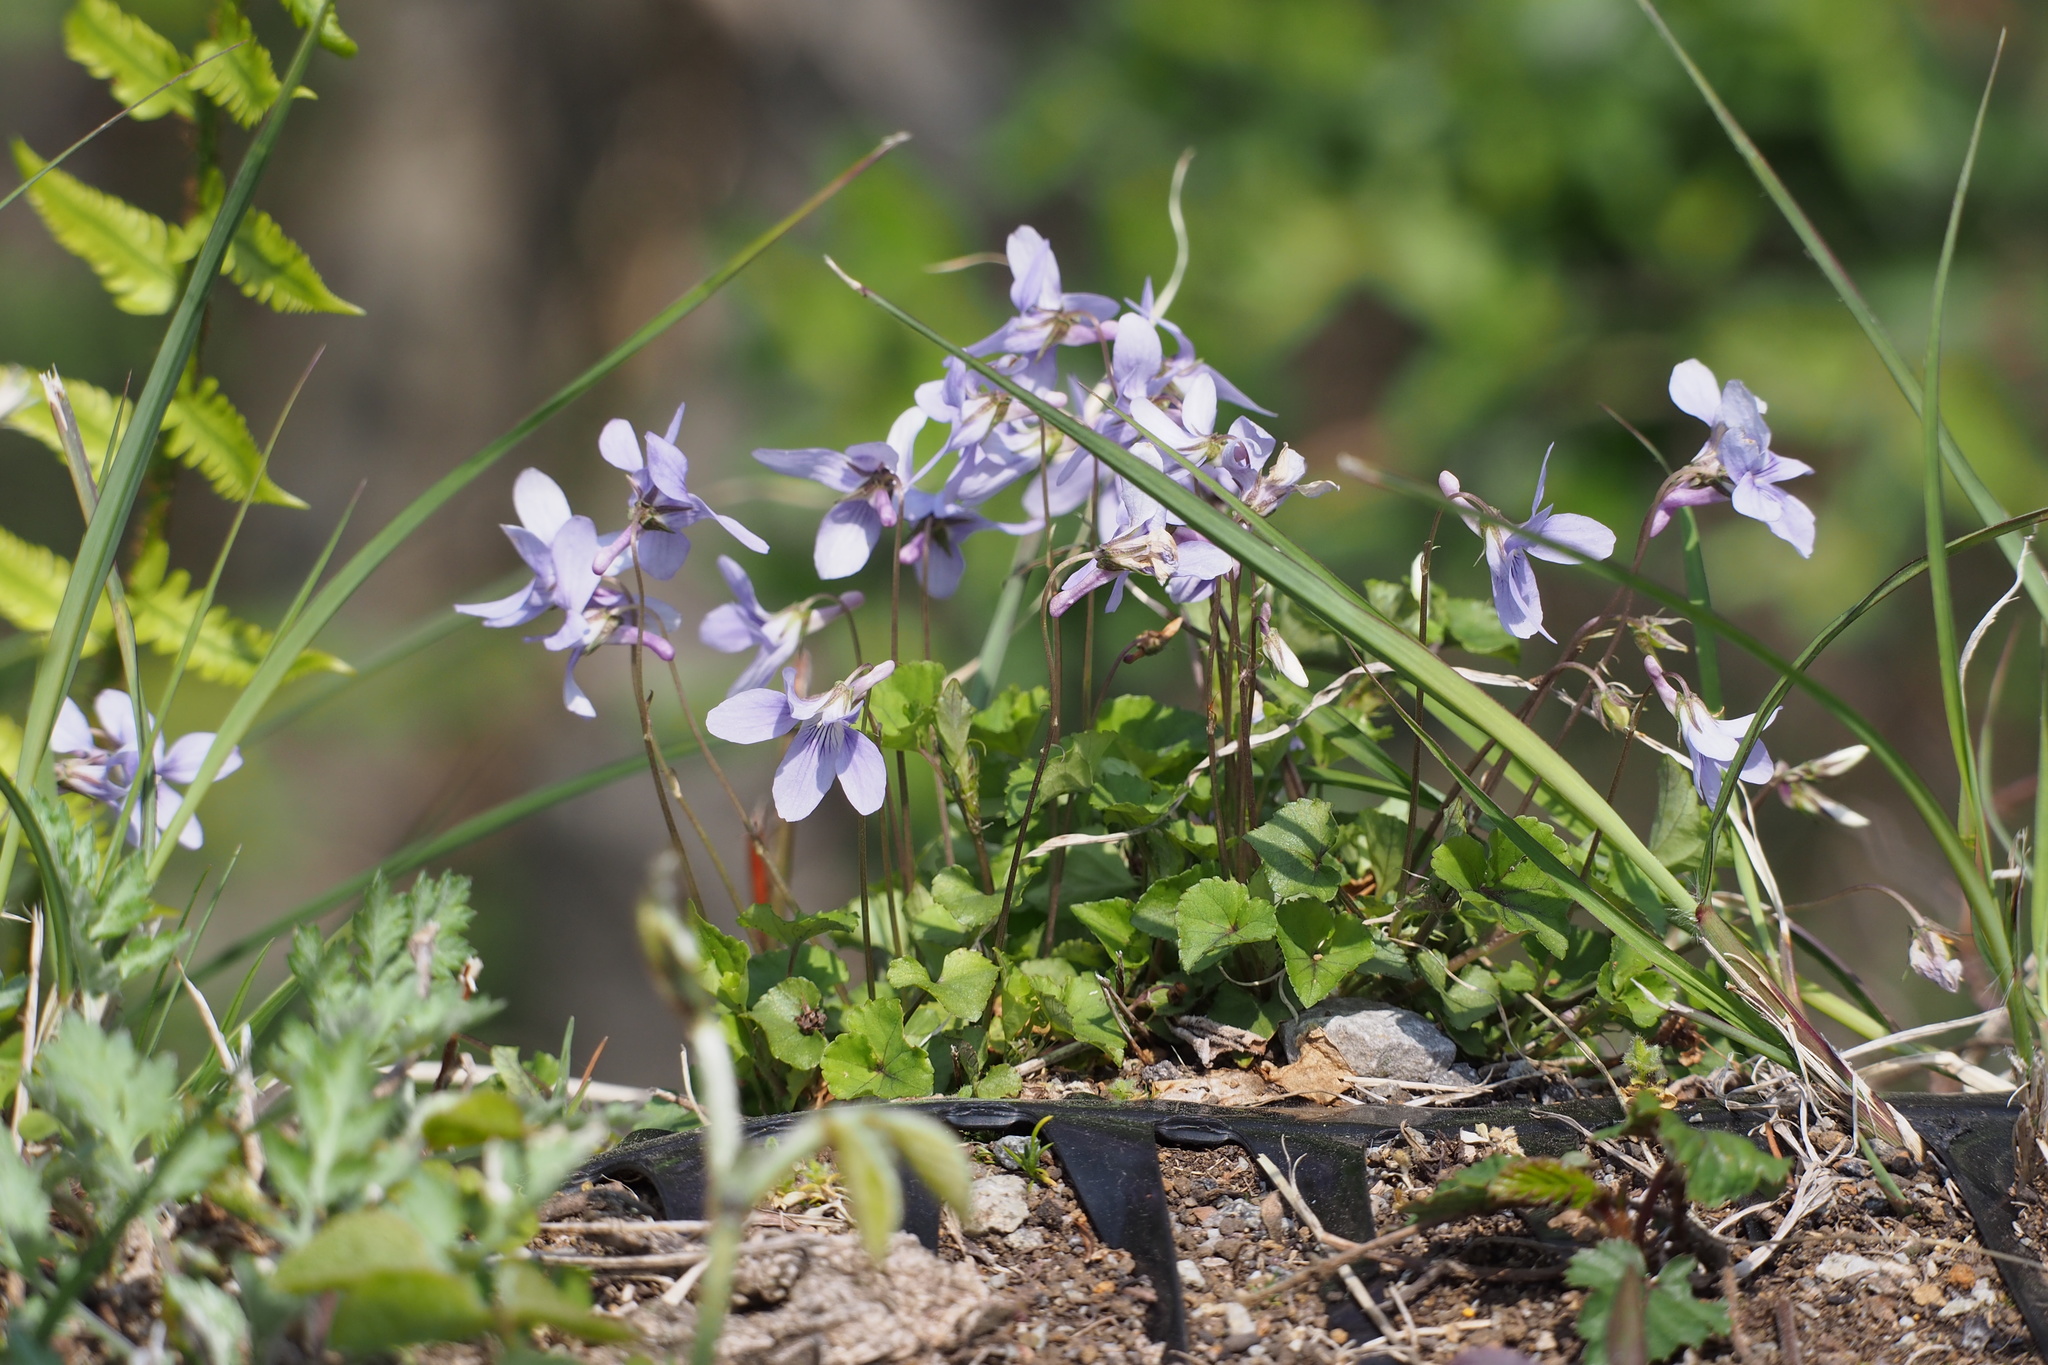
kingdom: Plantae
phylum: Tracheophyta
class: Magnoliopsida
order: Malpighiales
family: Violaceae
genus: Viola
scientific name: Viola grypoceras
